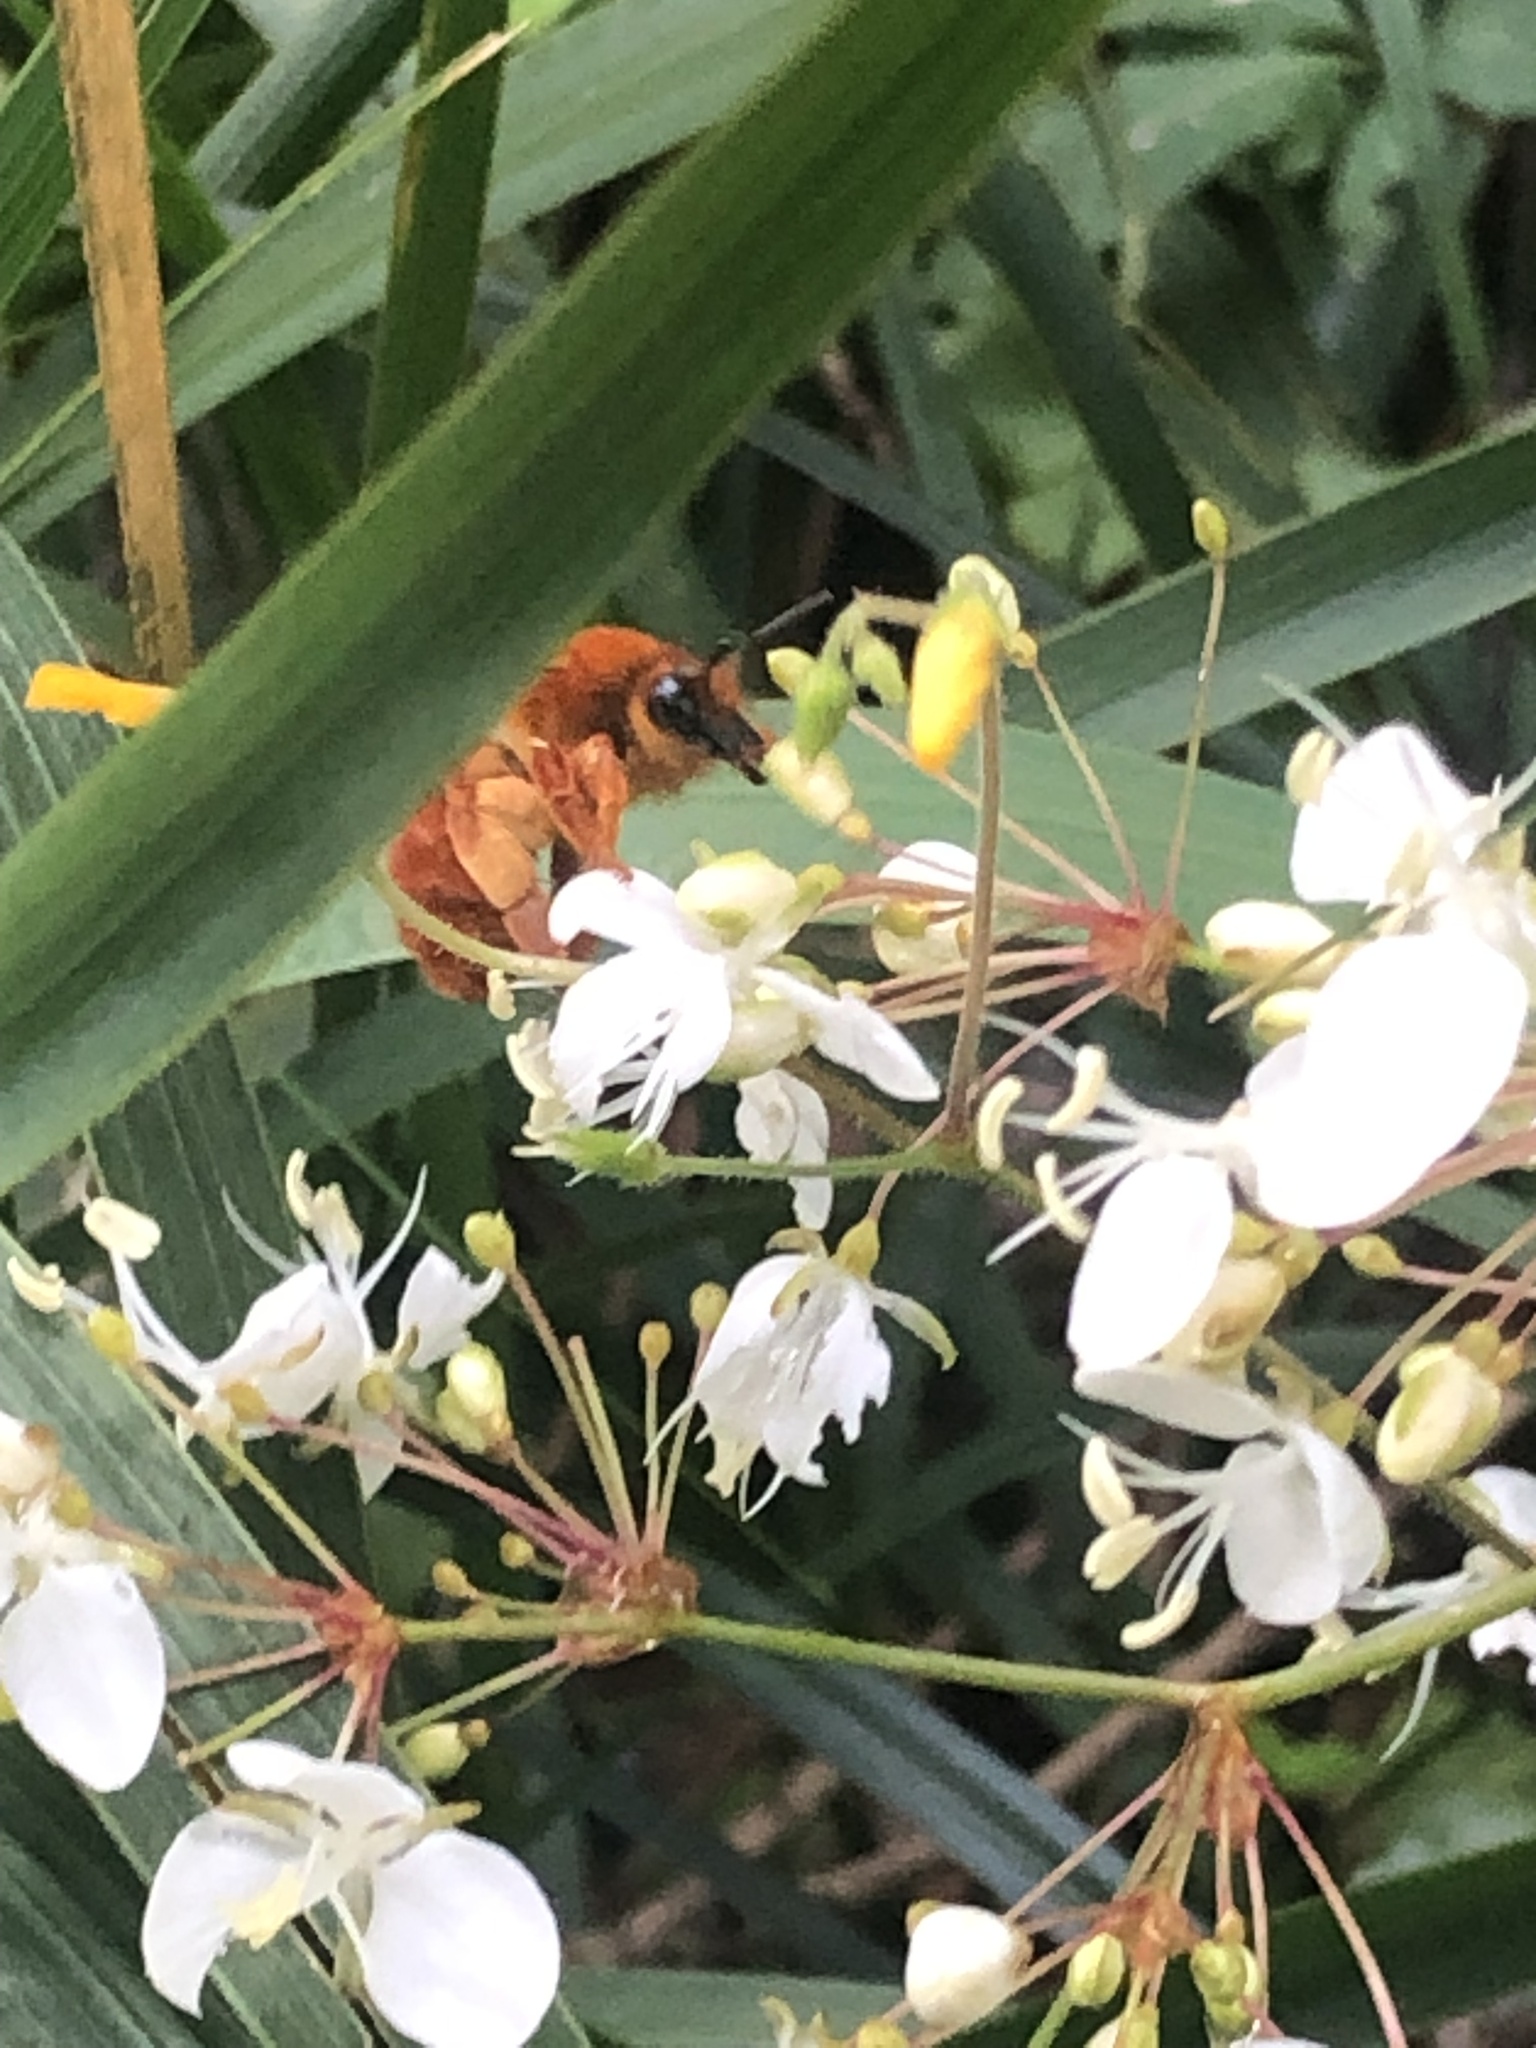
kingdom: Animalia
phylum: Arthropoda
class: Insecta
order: Hymenoptera
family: Colletidae
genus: Diphaglossa
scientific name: Diphaglossa gayi
